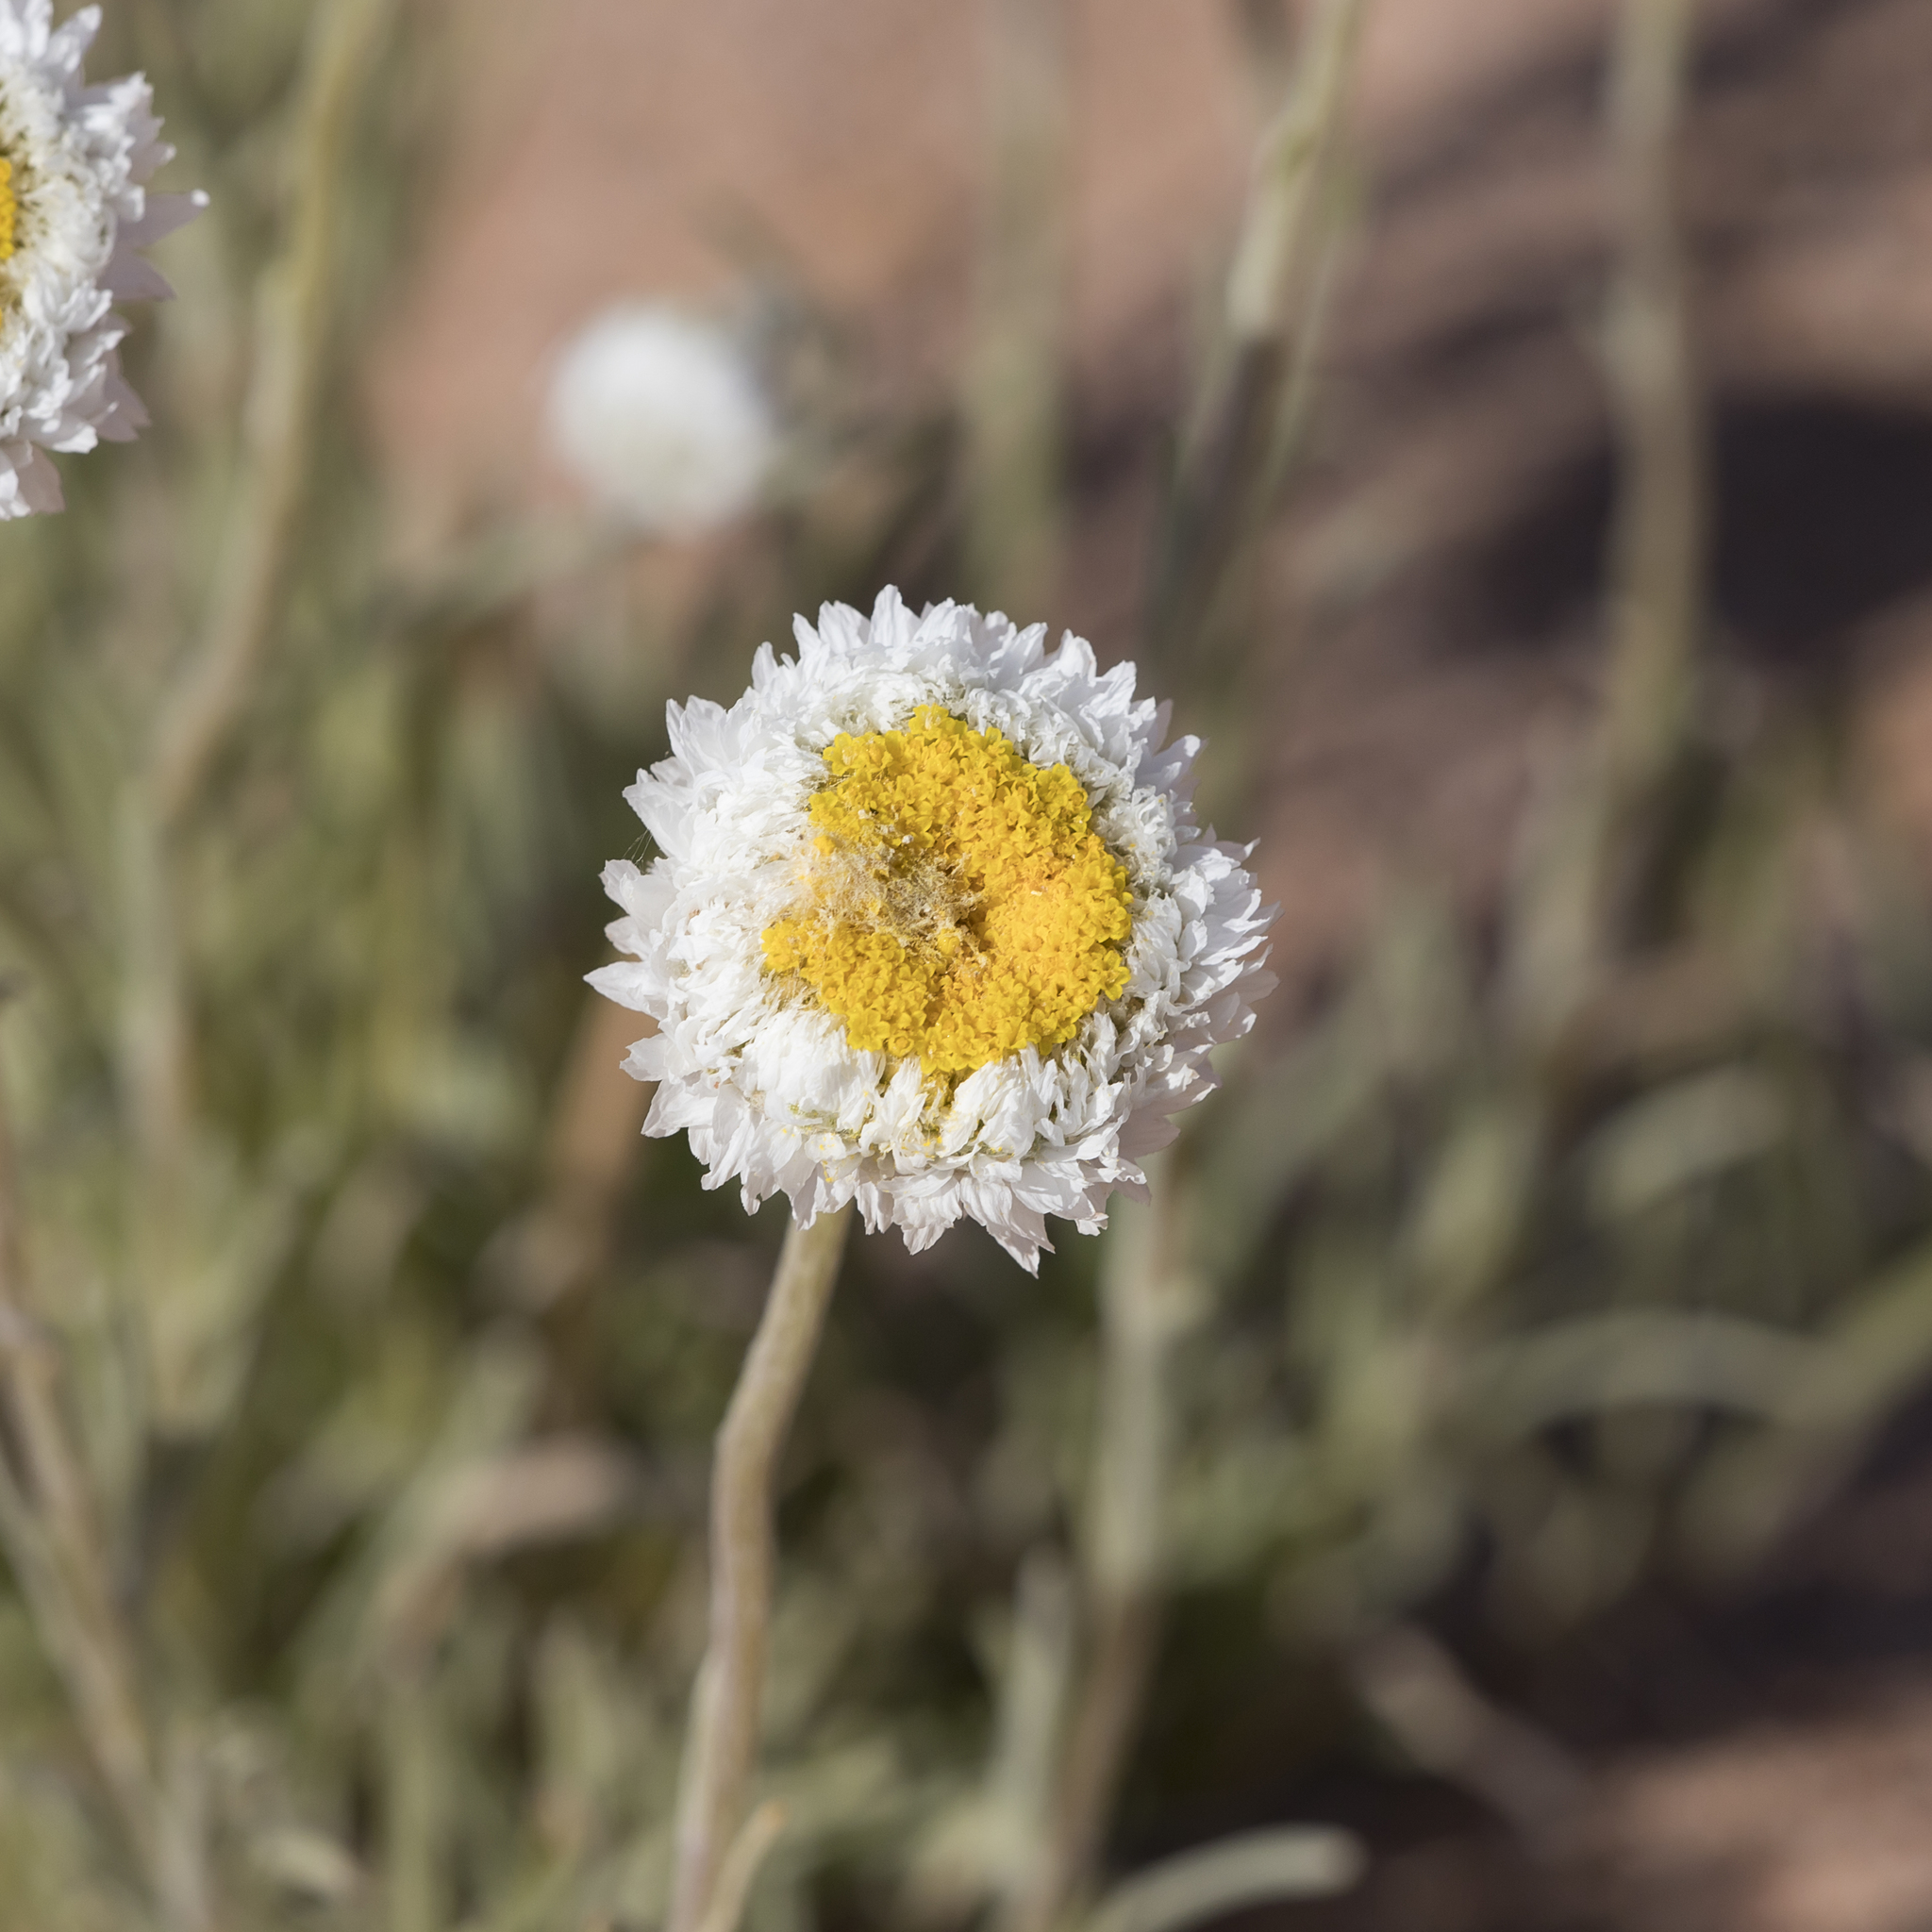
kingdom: Plantae
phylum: Tracheophyta
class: Magnoliopsida
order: Asterales
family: Asteraceae
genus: Polycalymma
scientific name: Polycalymma stuartii
